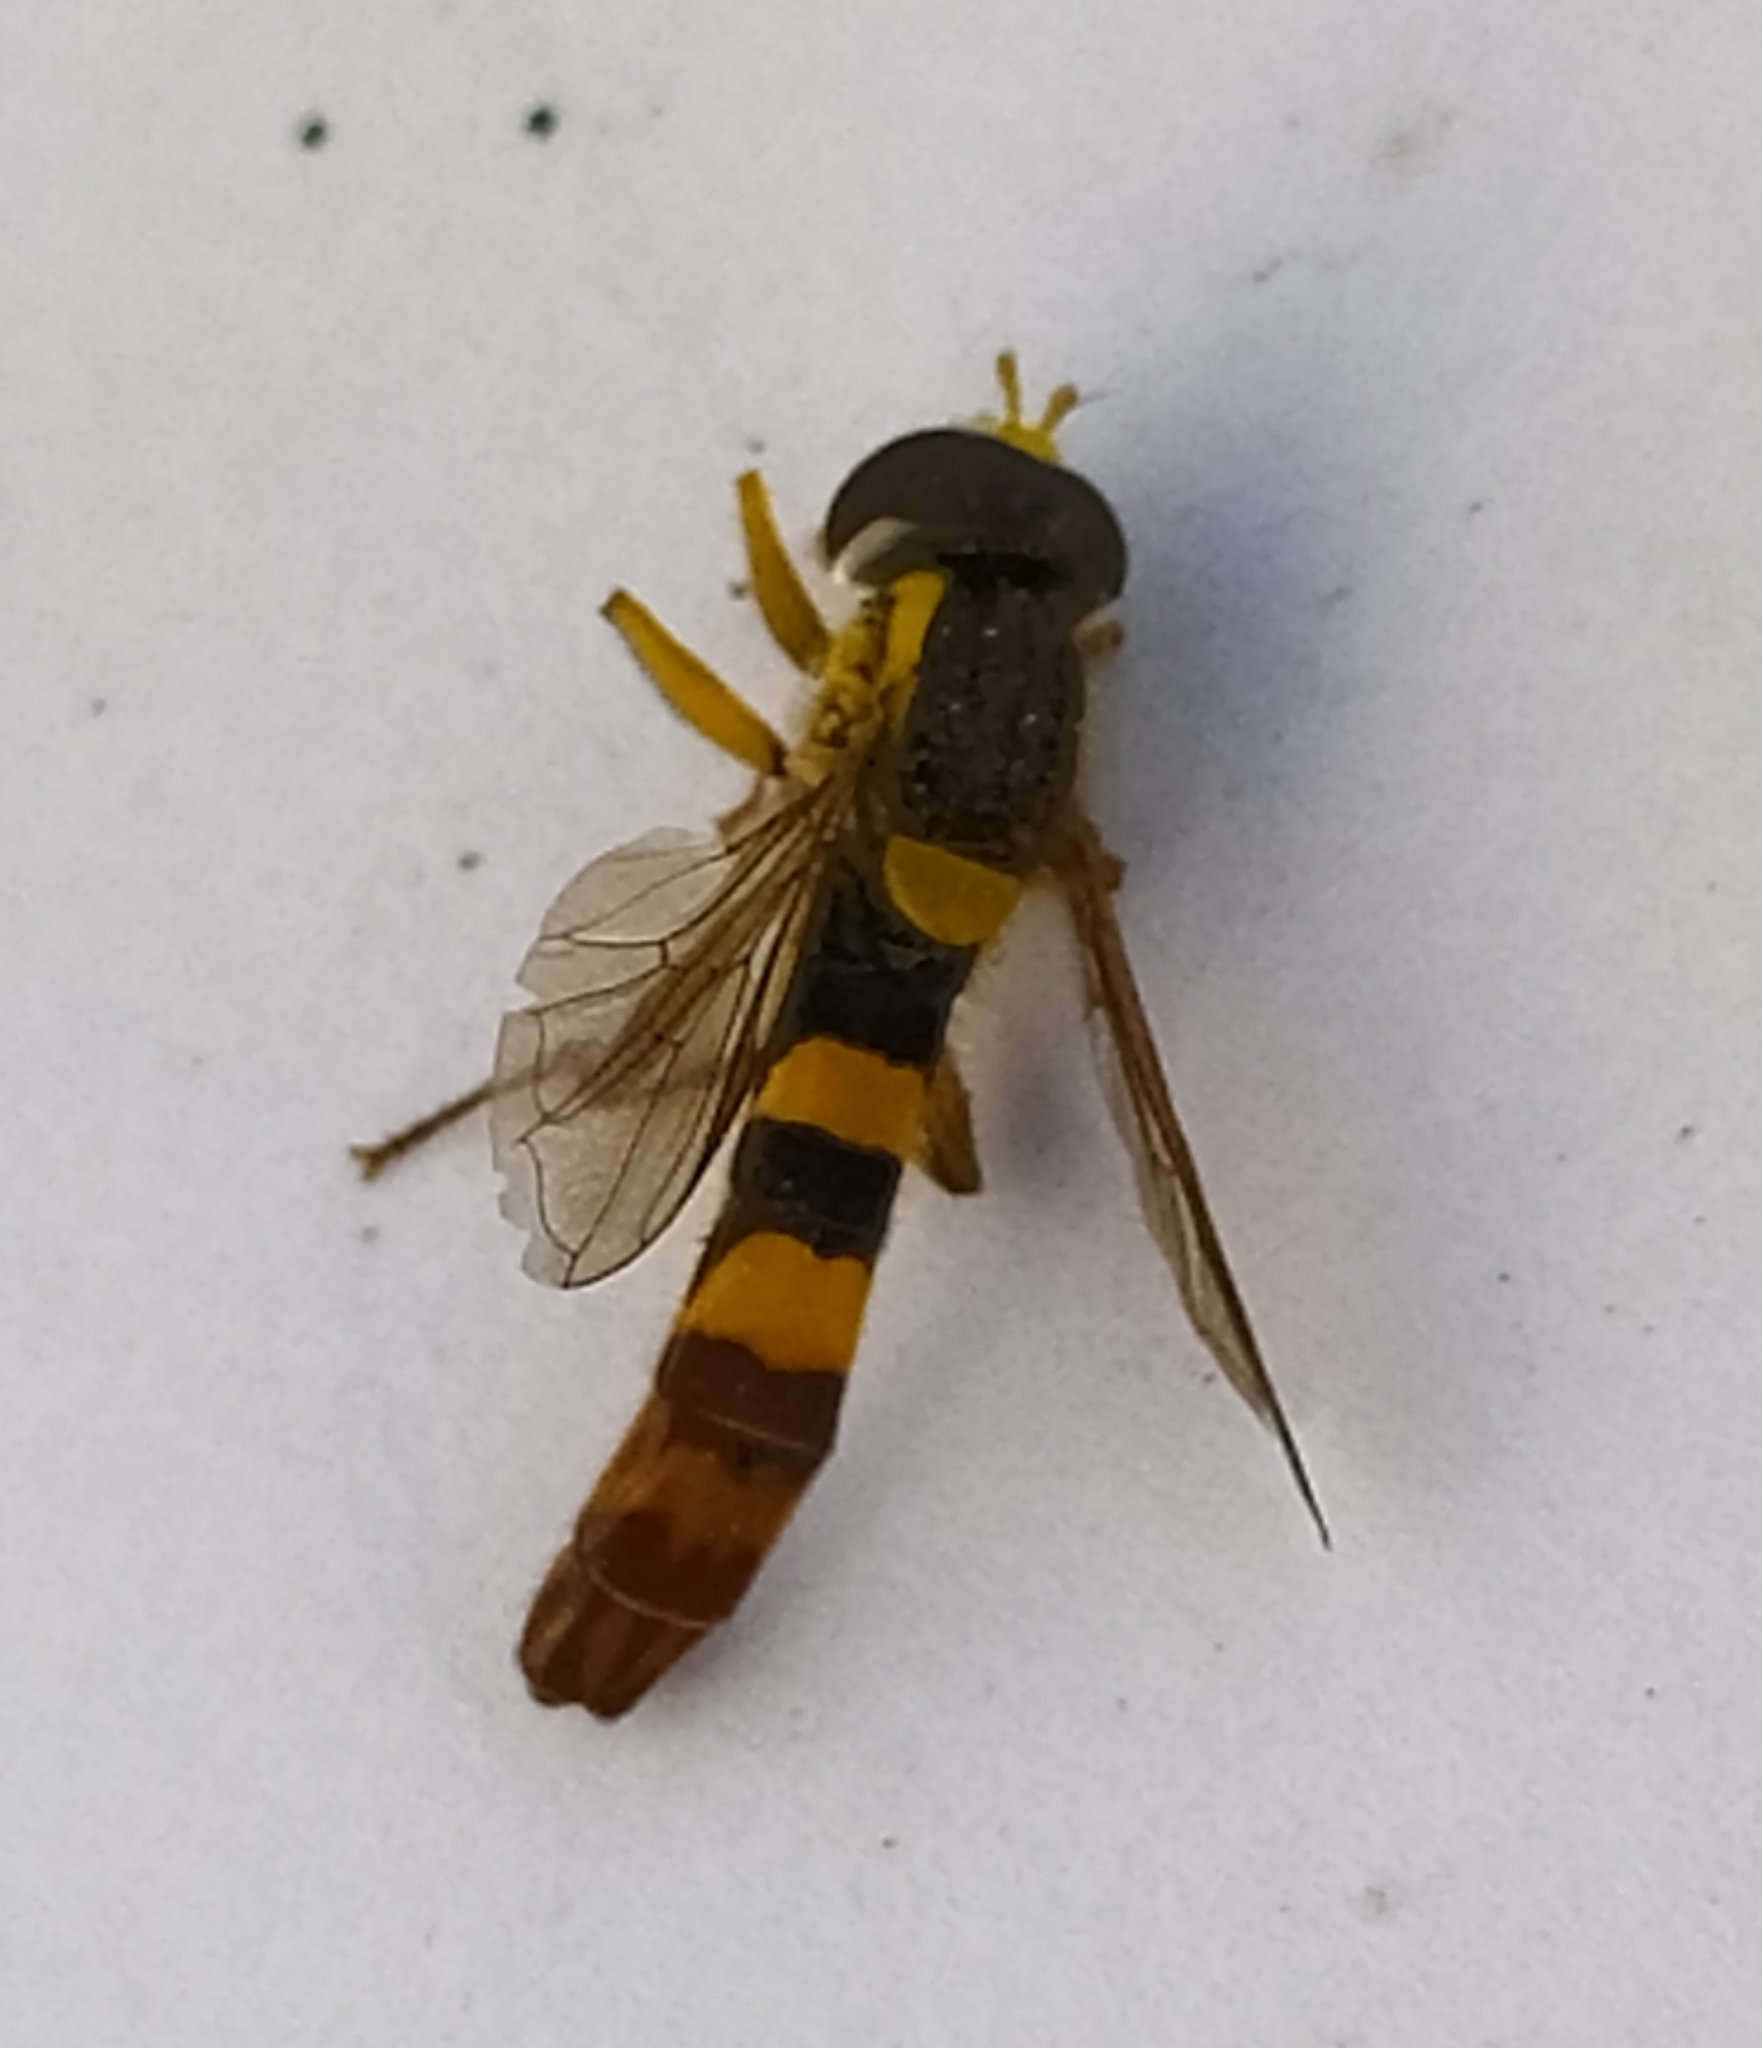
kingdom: Animalia
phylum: Arthropoda
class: Insecta
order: Diptera
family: Syrphidae
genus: Sphaerophoria
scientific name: Sphaerophoria scripta
